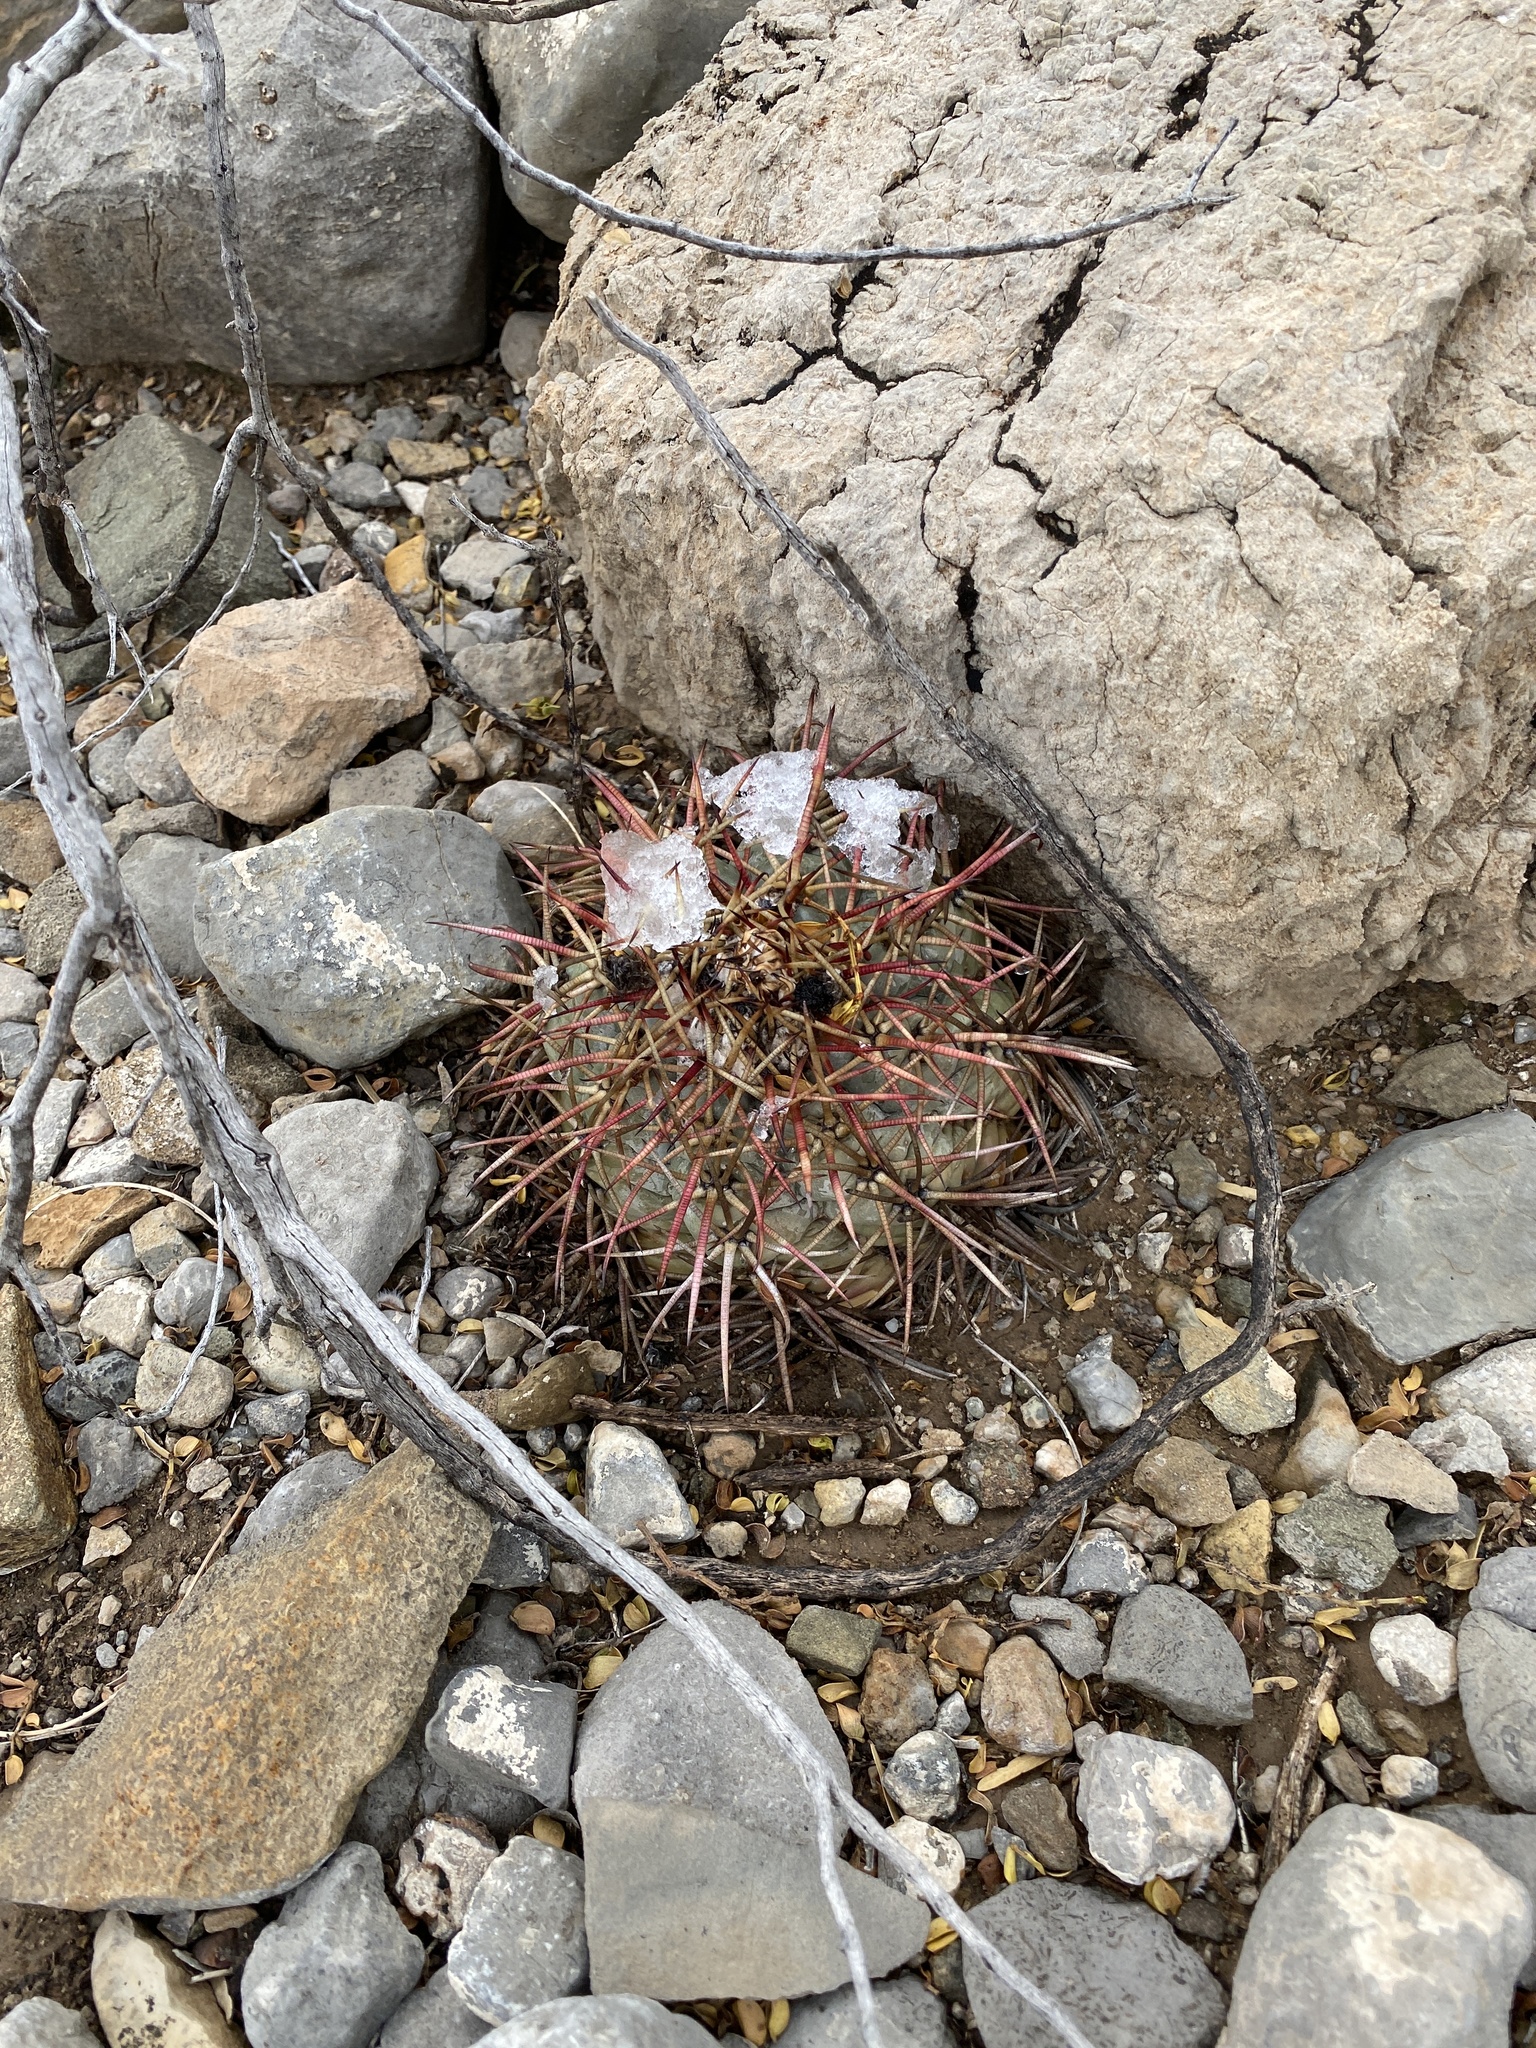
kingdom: Plantae
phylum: Tracheophyta
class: Magnoliopsida
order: Caryophyllales
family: Cactaceae
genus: Echinocactus
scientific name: Echinocactus horizonthalonius
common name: Devilshead
